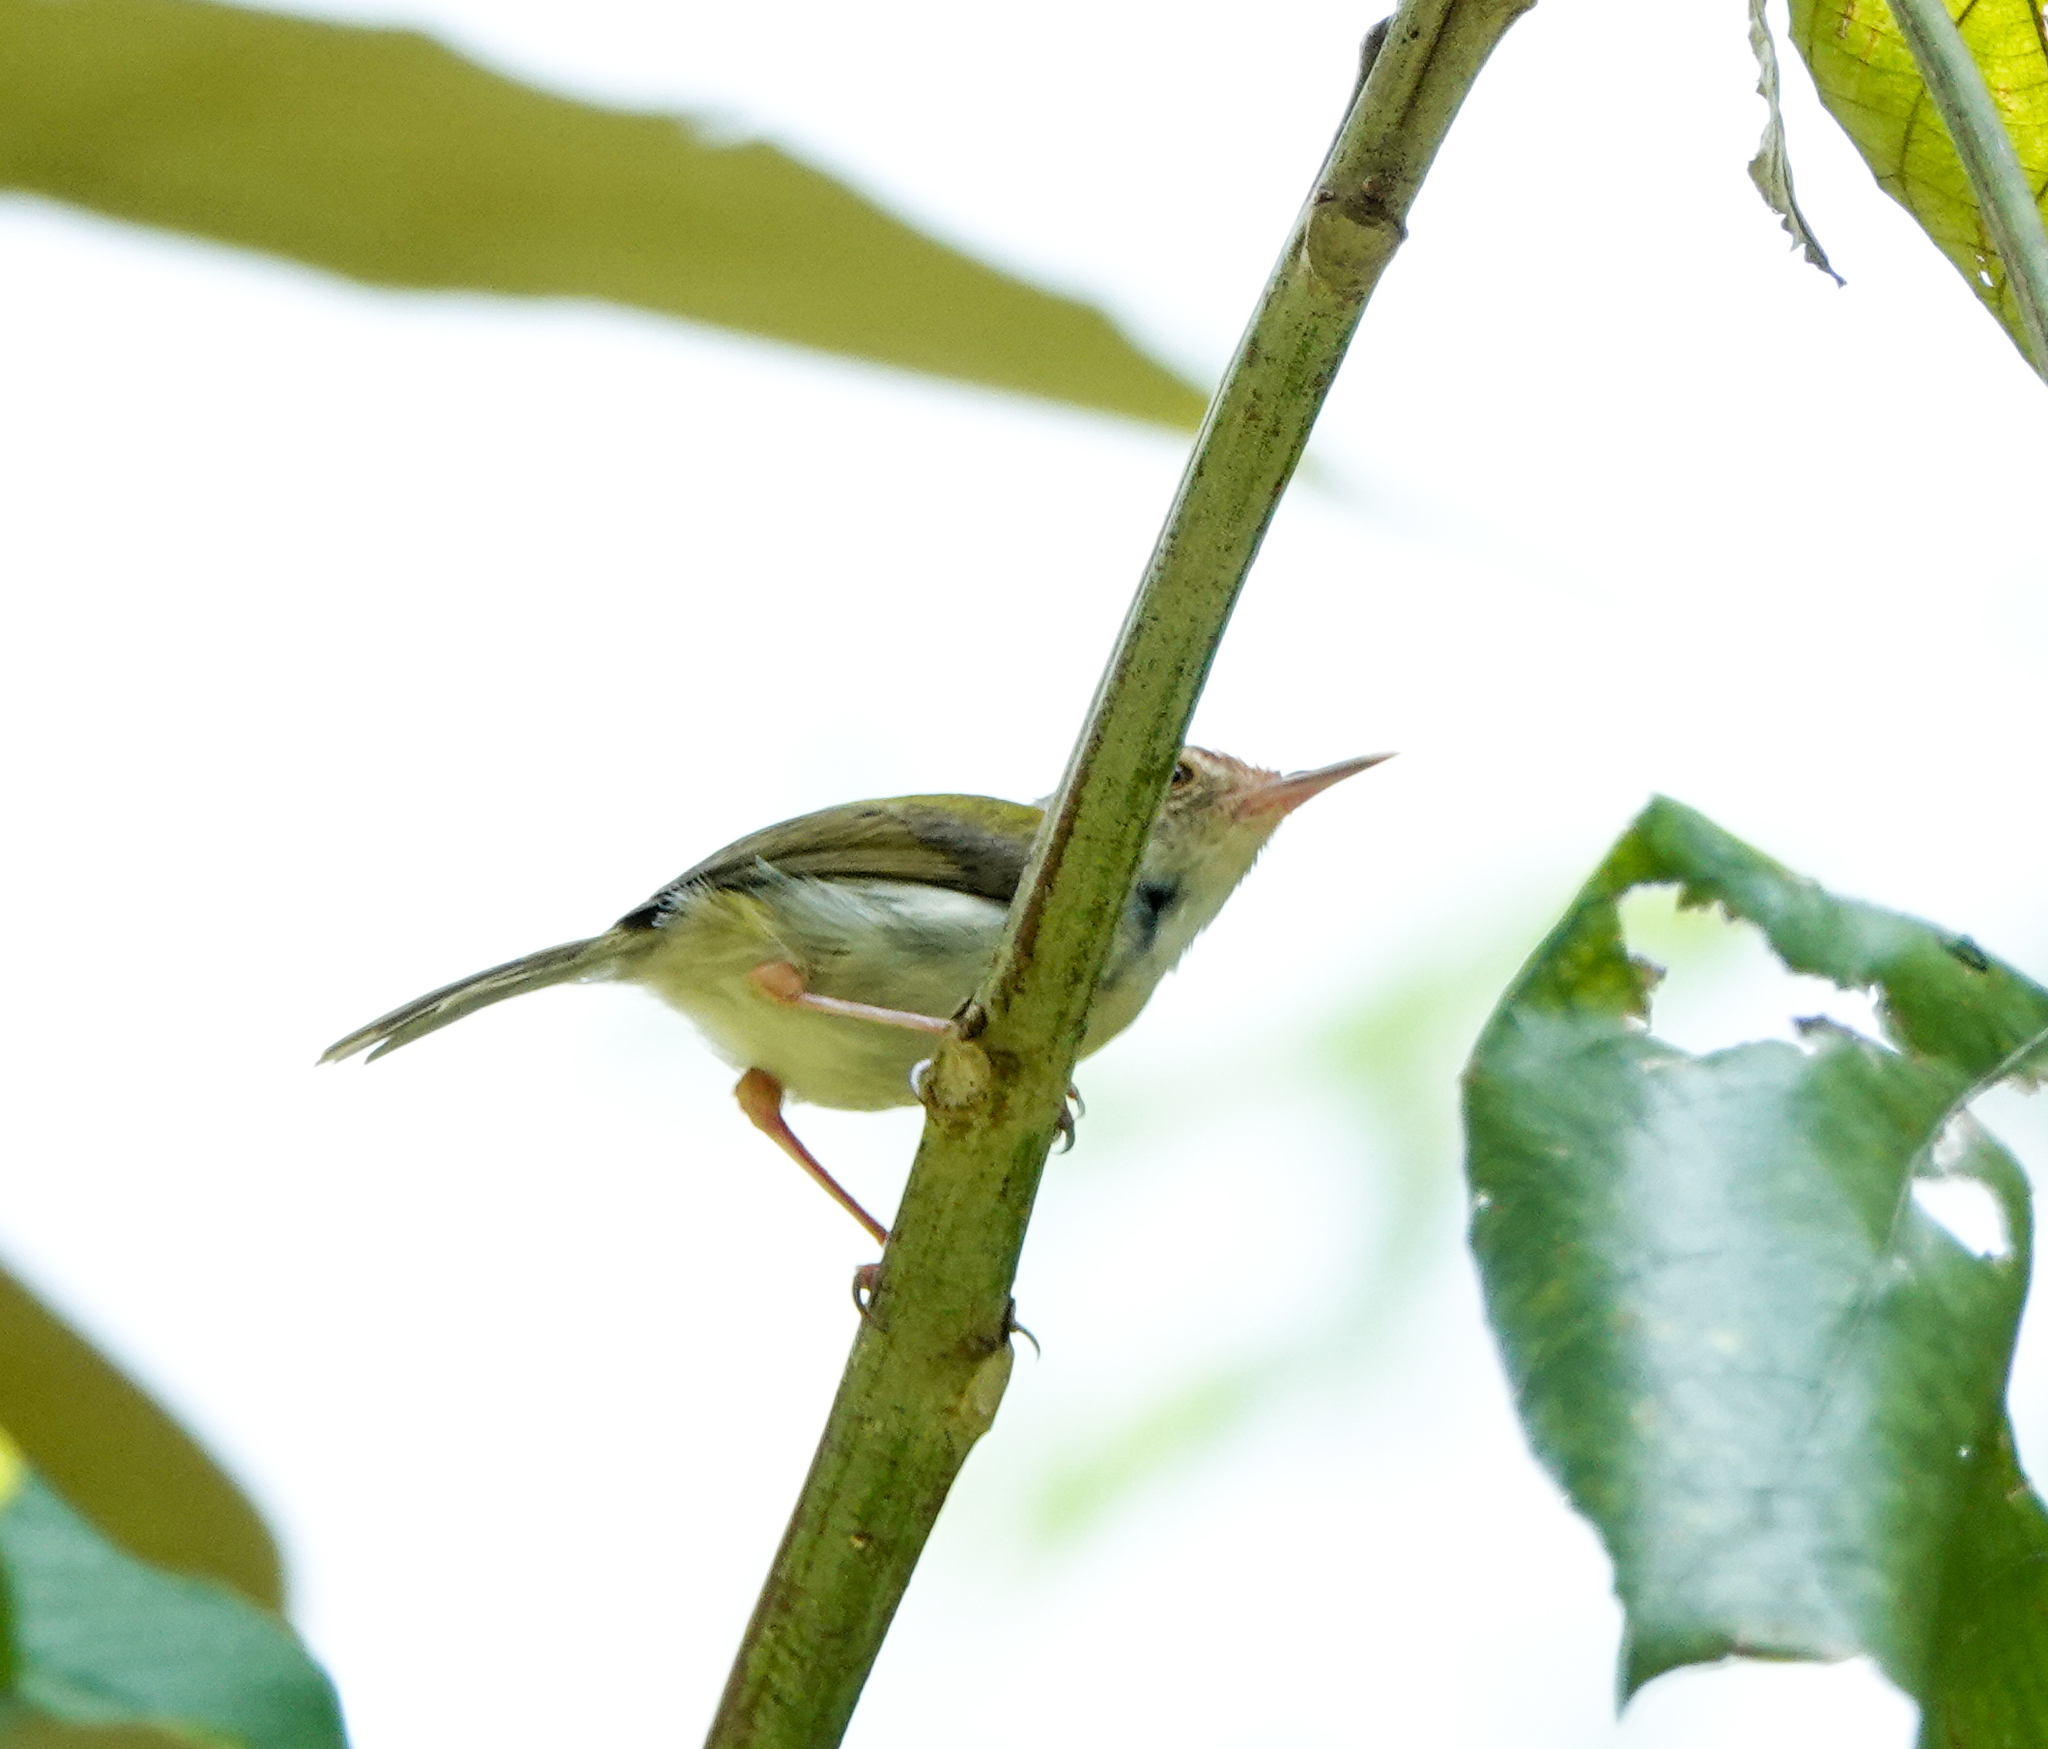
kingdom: Animalia
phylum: Chordata
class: Aves
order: Passeriformes
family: Cisticolidae
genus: Orthotomus
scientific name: Orthotomus sutorius
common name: Common tailorbird
